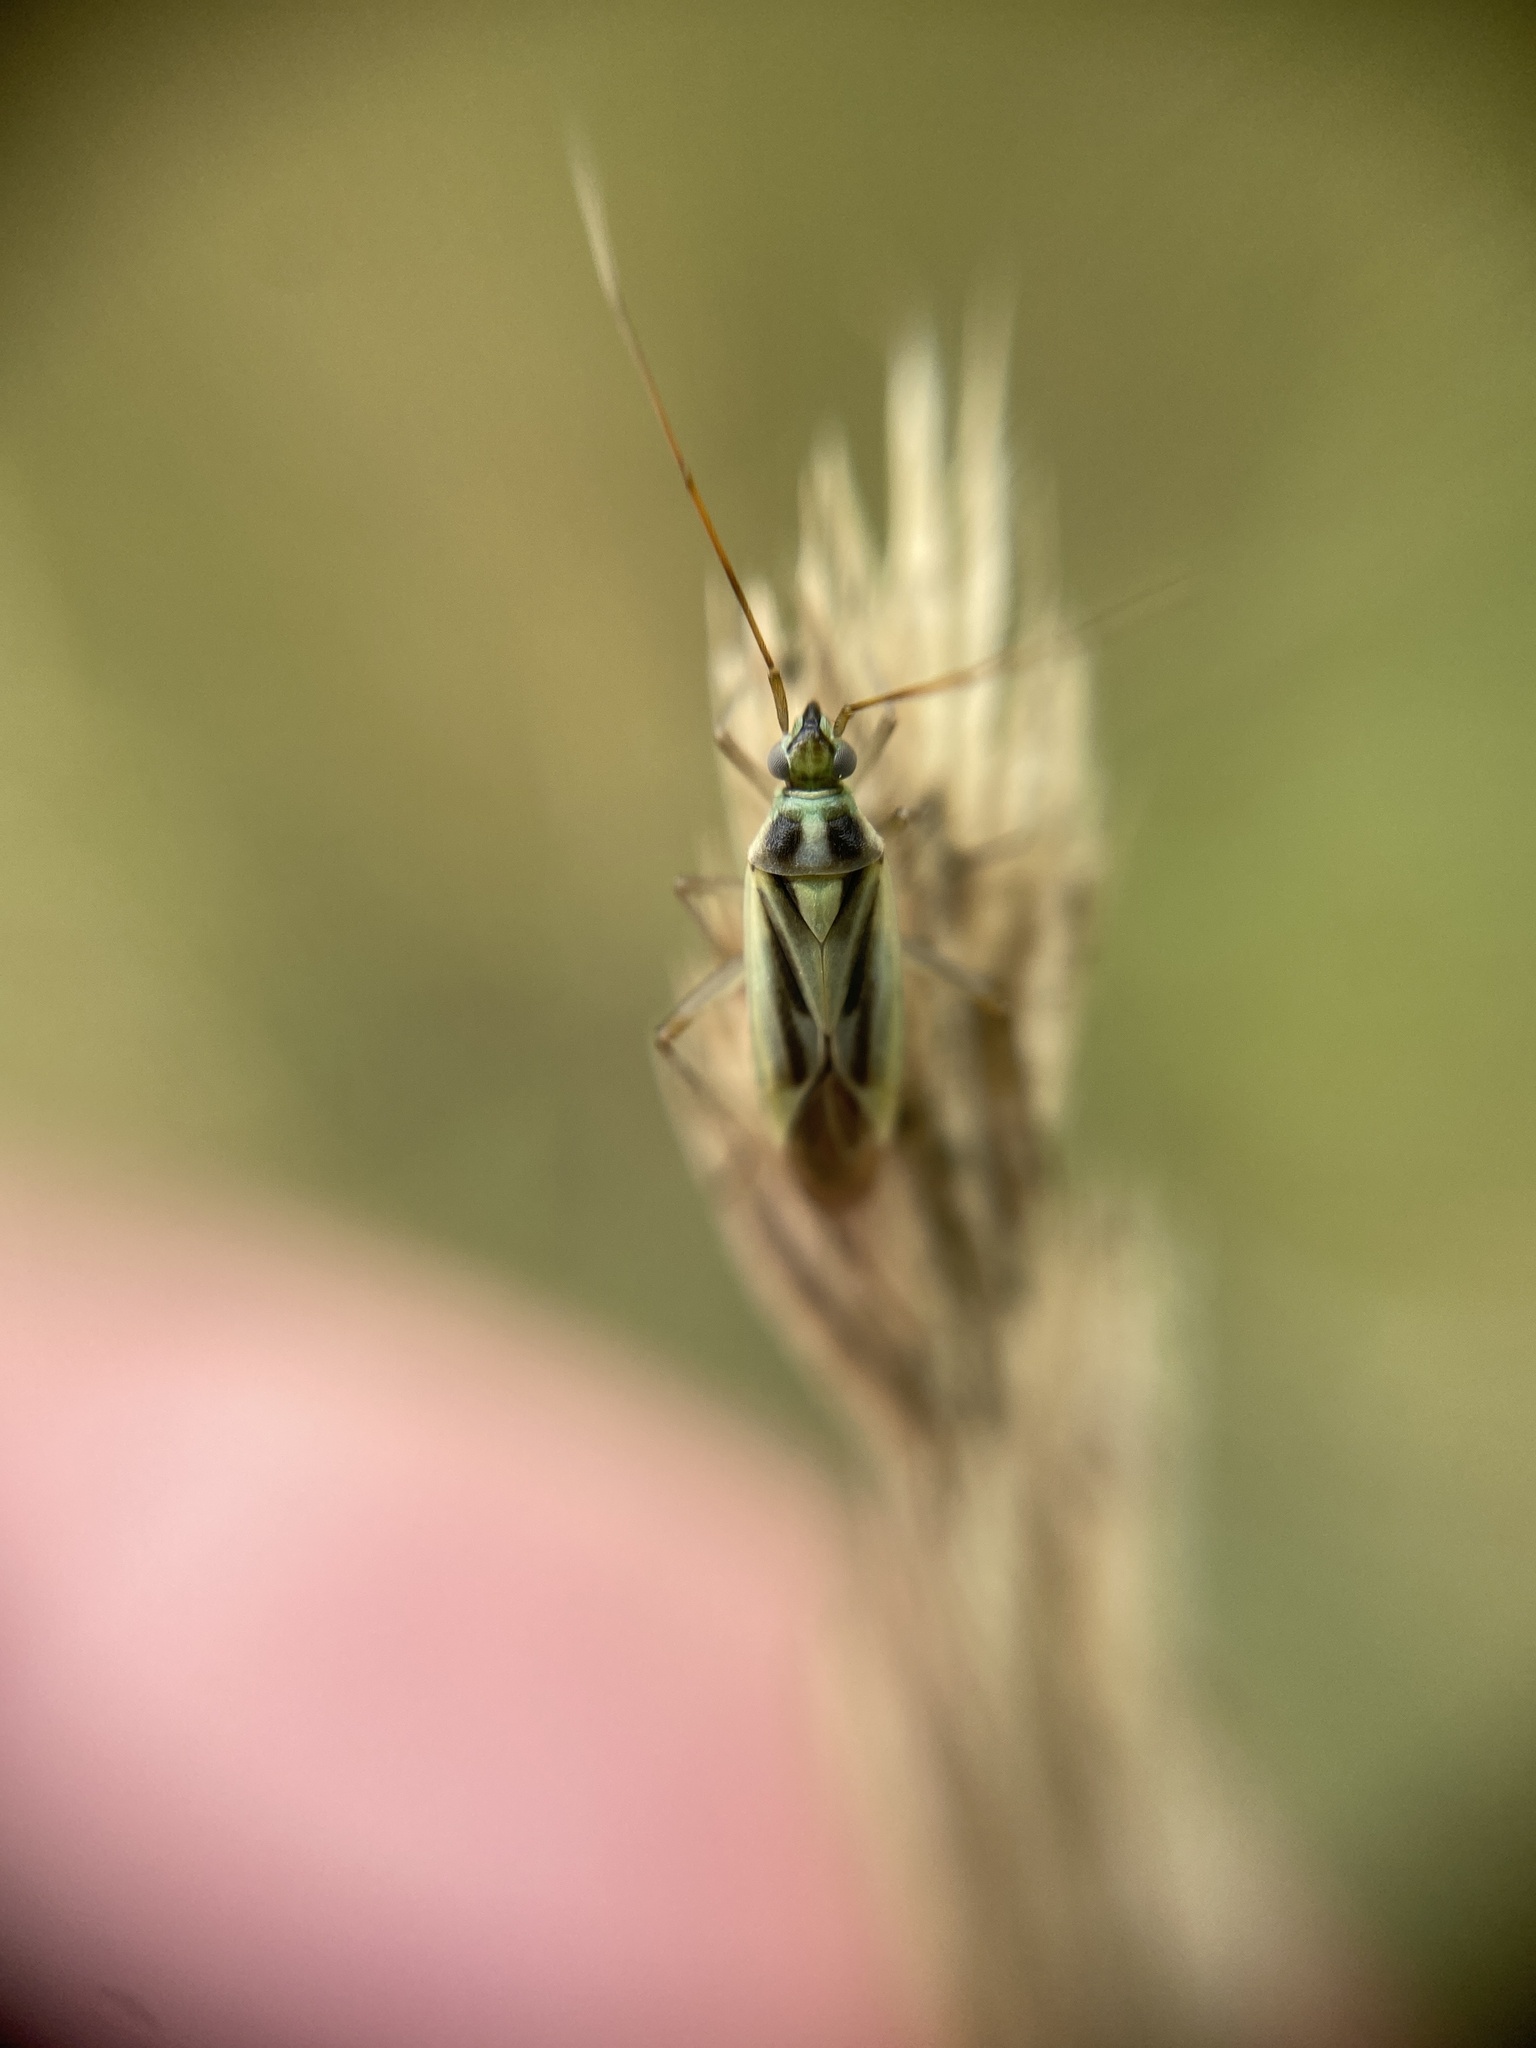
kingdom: Animalia
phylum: Arthropoda
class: Insecta
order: Hemiptera
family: Miridae
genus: Stenotus
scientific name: Stenotus binotatus
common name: Plant bug
